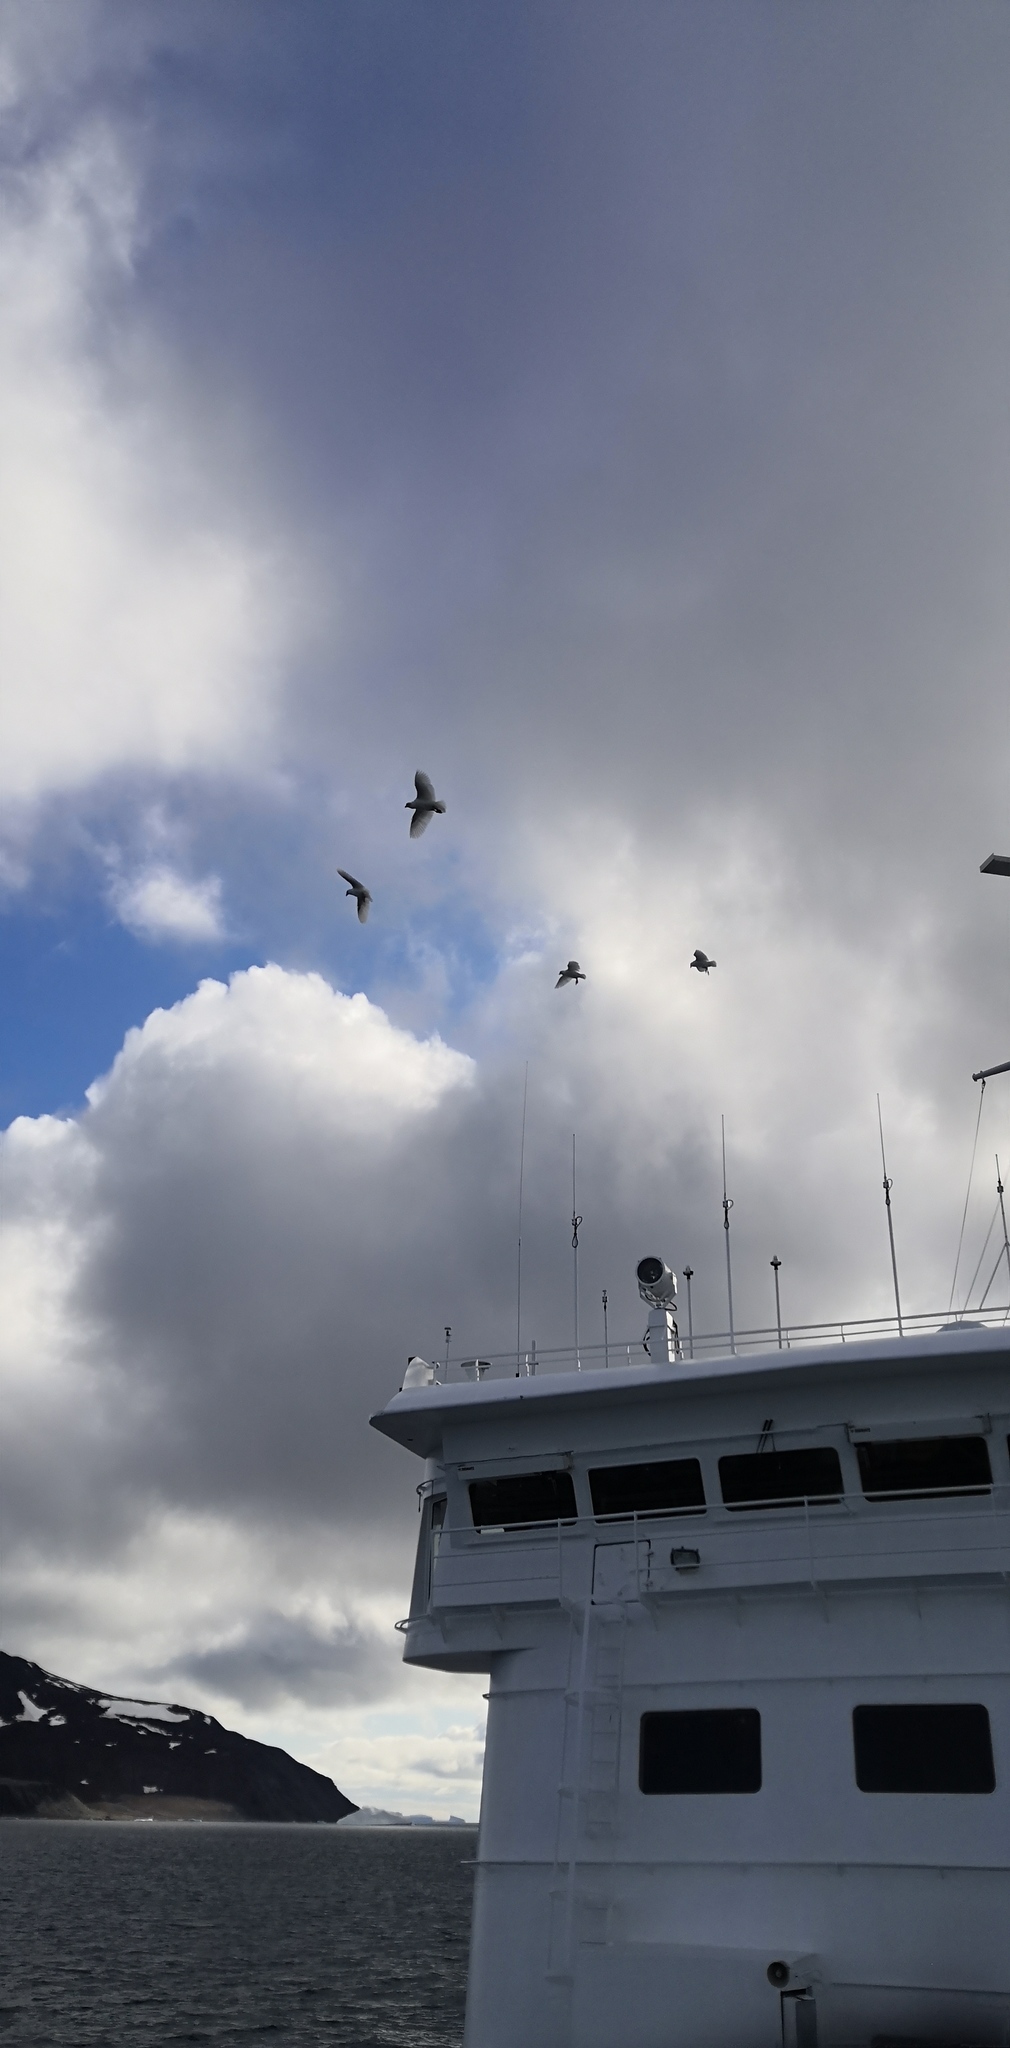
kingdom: Animalia
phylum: Chordata
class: Aves
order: Charadriiformes
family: Chionidae
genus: Chionis
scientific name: Chionis albus
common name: Snowy sheathbill
